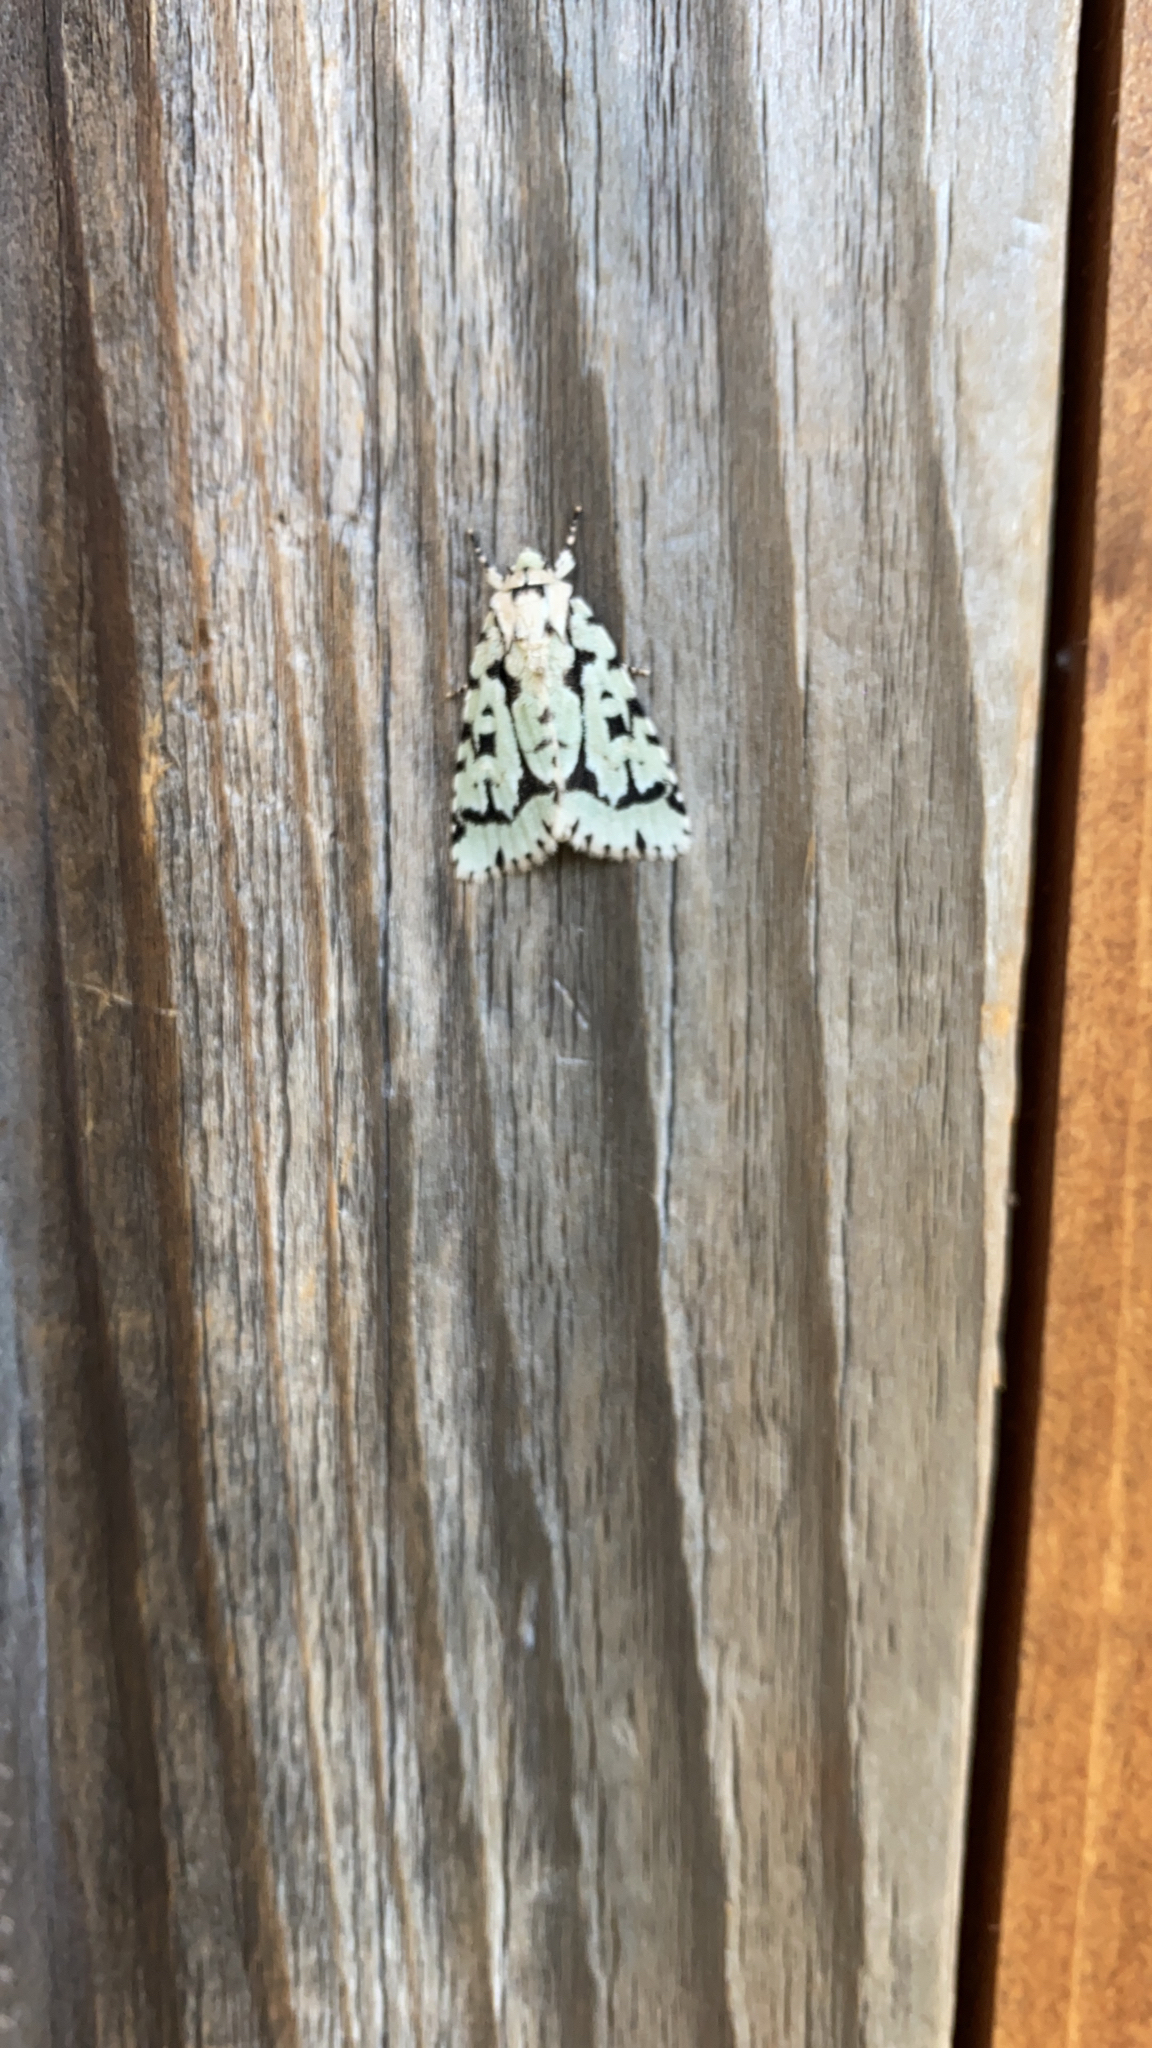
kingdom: Animalia
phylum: Arthropoda
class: Insecta
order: Lepidoptera
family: Noctuidae
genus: Acronicta
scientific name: Acronicta fallax
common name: Green marvel
